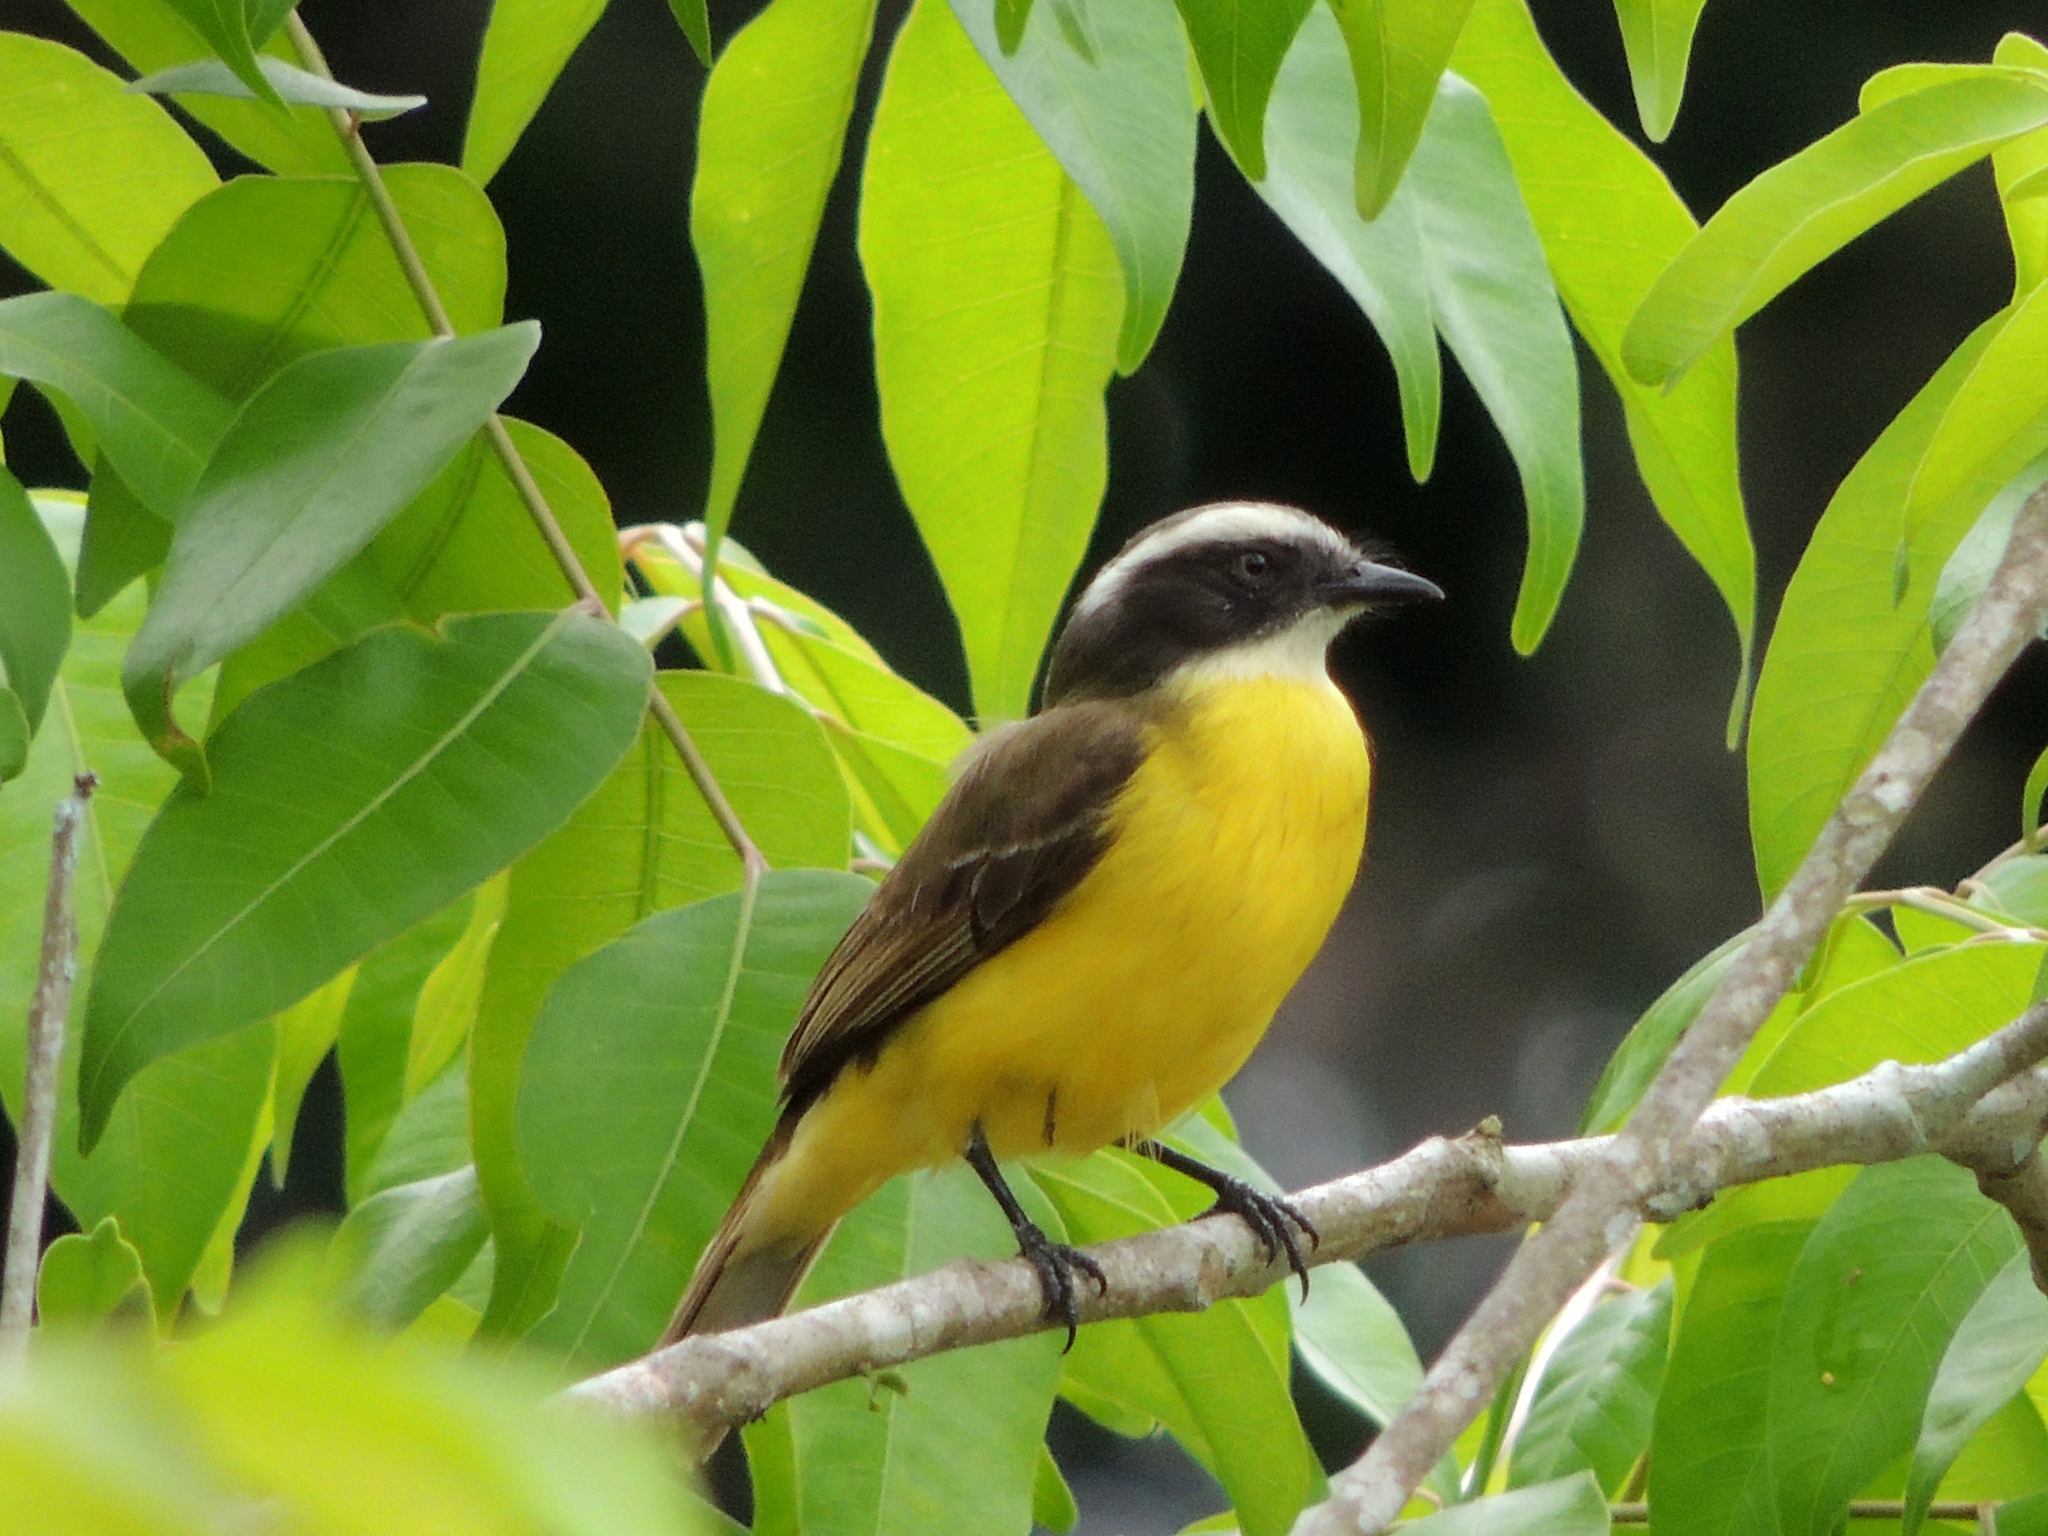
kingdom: Animalia
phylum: Chordata
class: Aves
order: Passeriformes
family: Tyrannidae
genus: Myiozetetes
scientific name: Myiozetetes similis
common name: Social flycatcher
